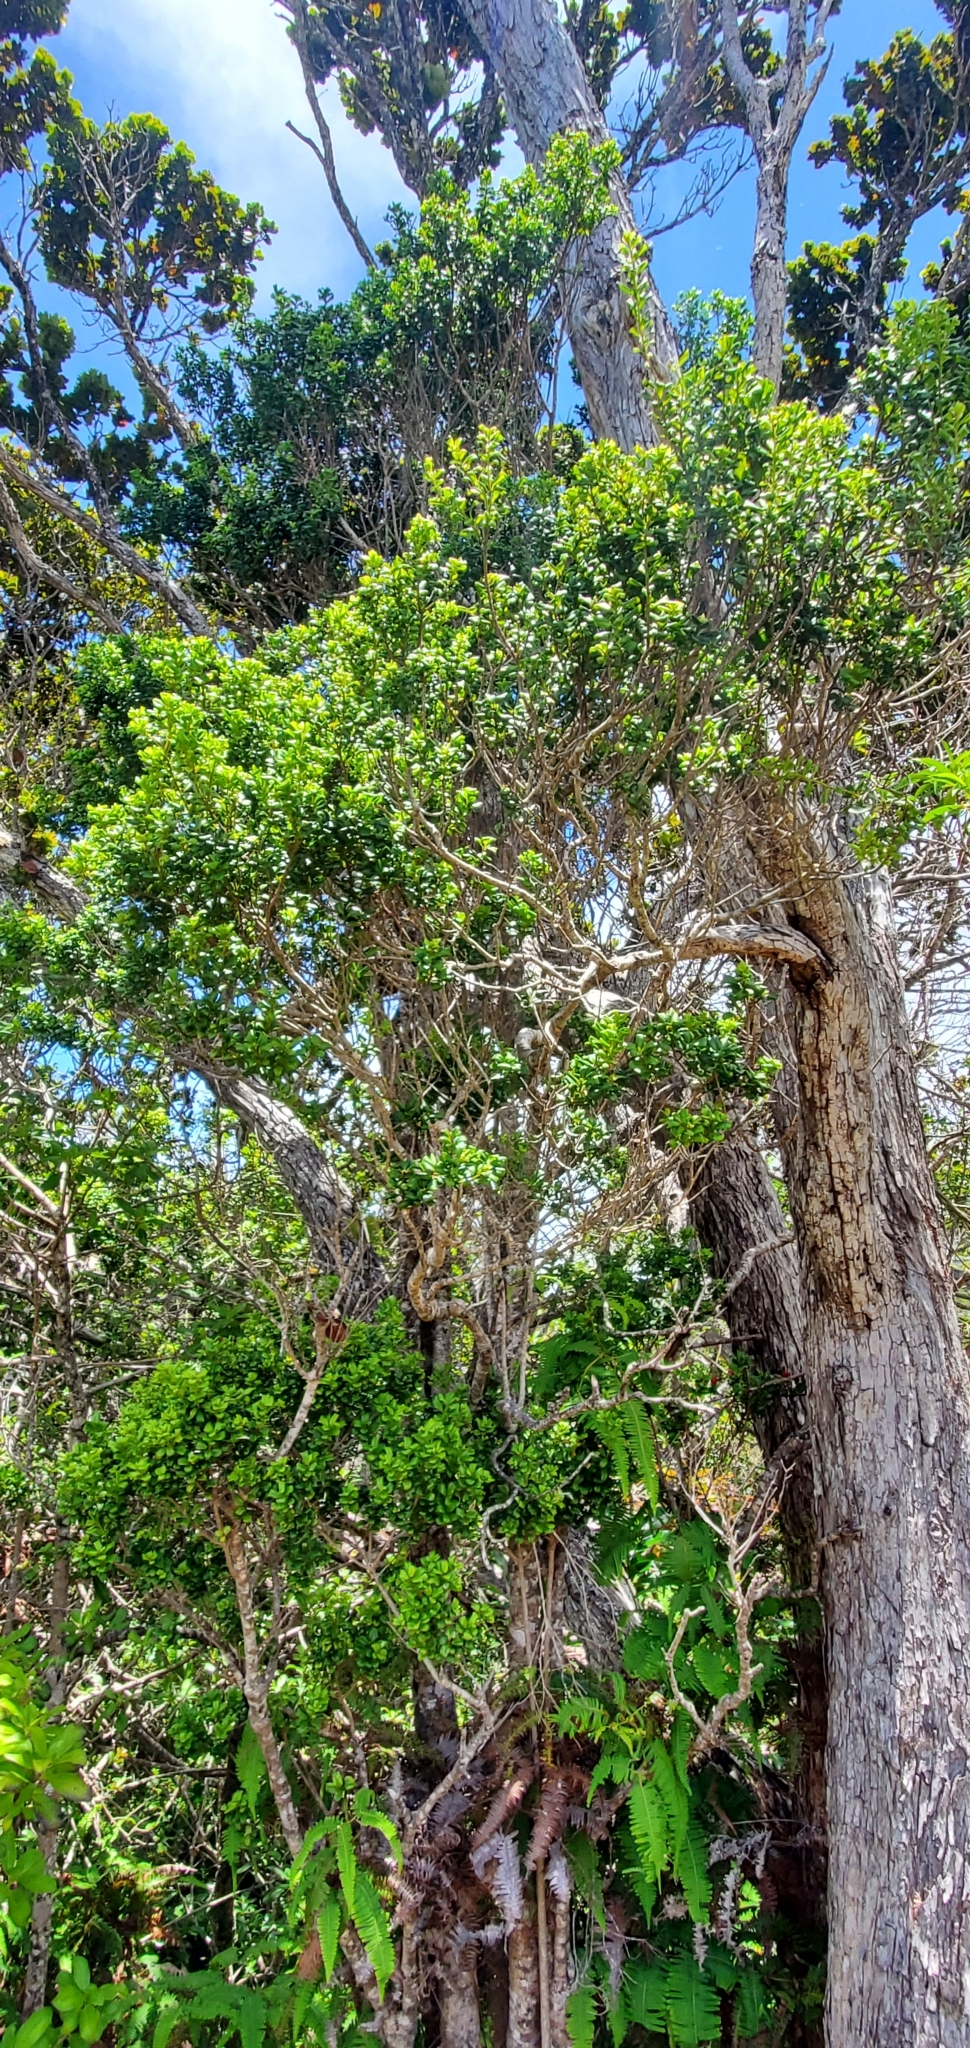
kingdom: Plantae
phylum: Tracheophyta
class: Magnoliopsida
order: Myrtales
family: Myrtaceae
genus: Metrosideros
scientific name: Metrosideros polymorpha
